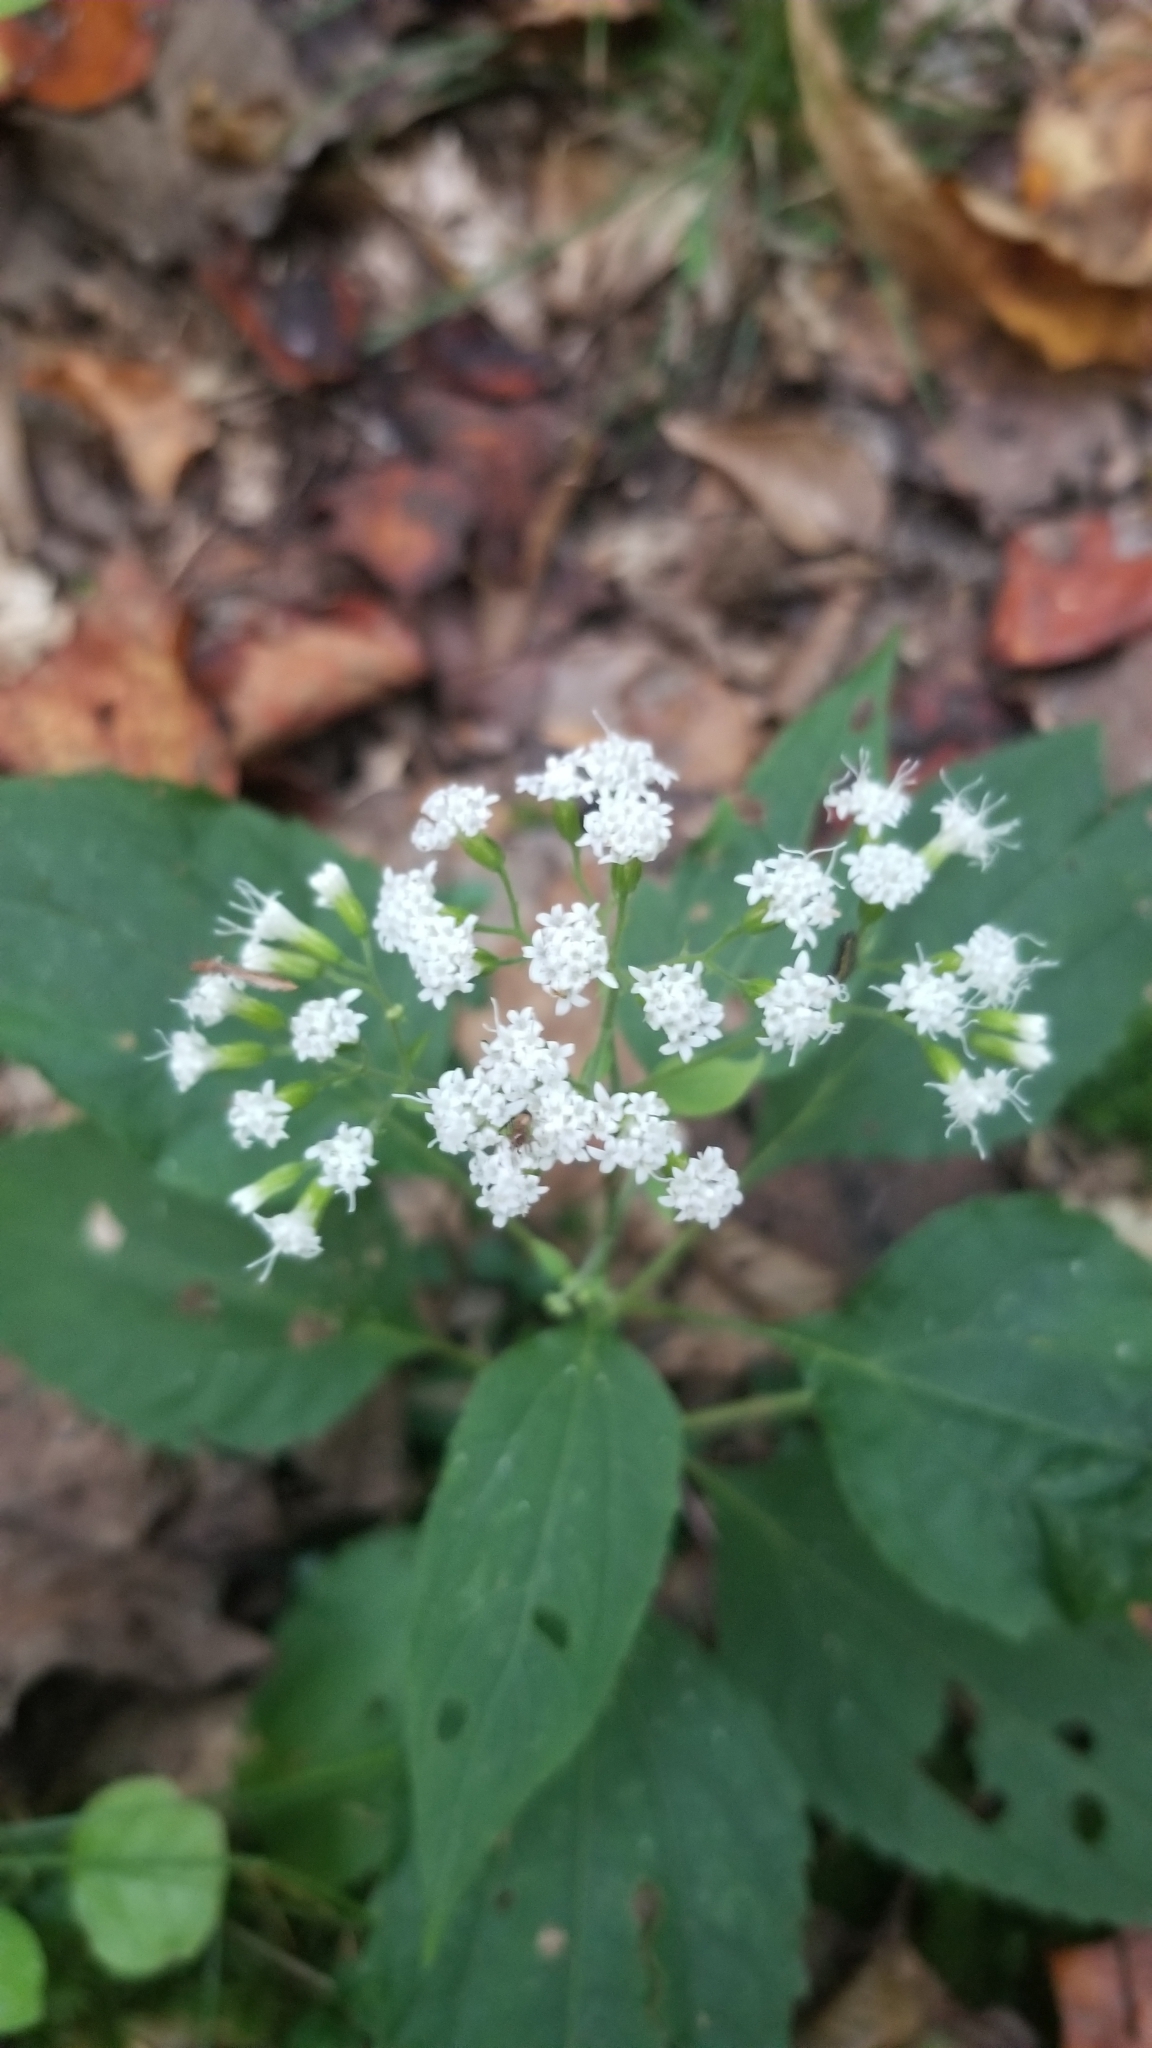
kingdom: Plantae
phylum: Tracheophyta
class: Magnoliopsida
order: Asterales
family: Asteraceae
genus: Ageratina
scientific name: Ageratina altissima
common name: White snakeroot
